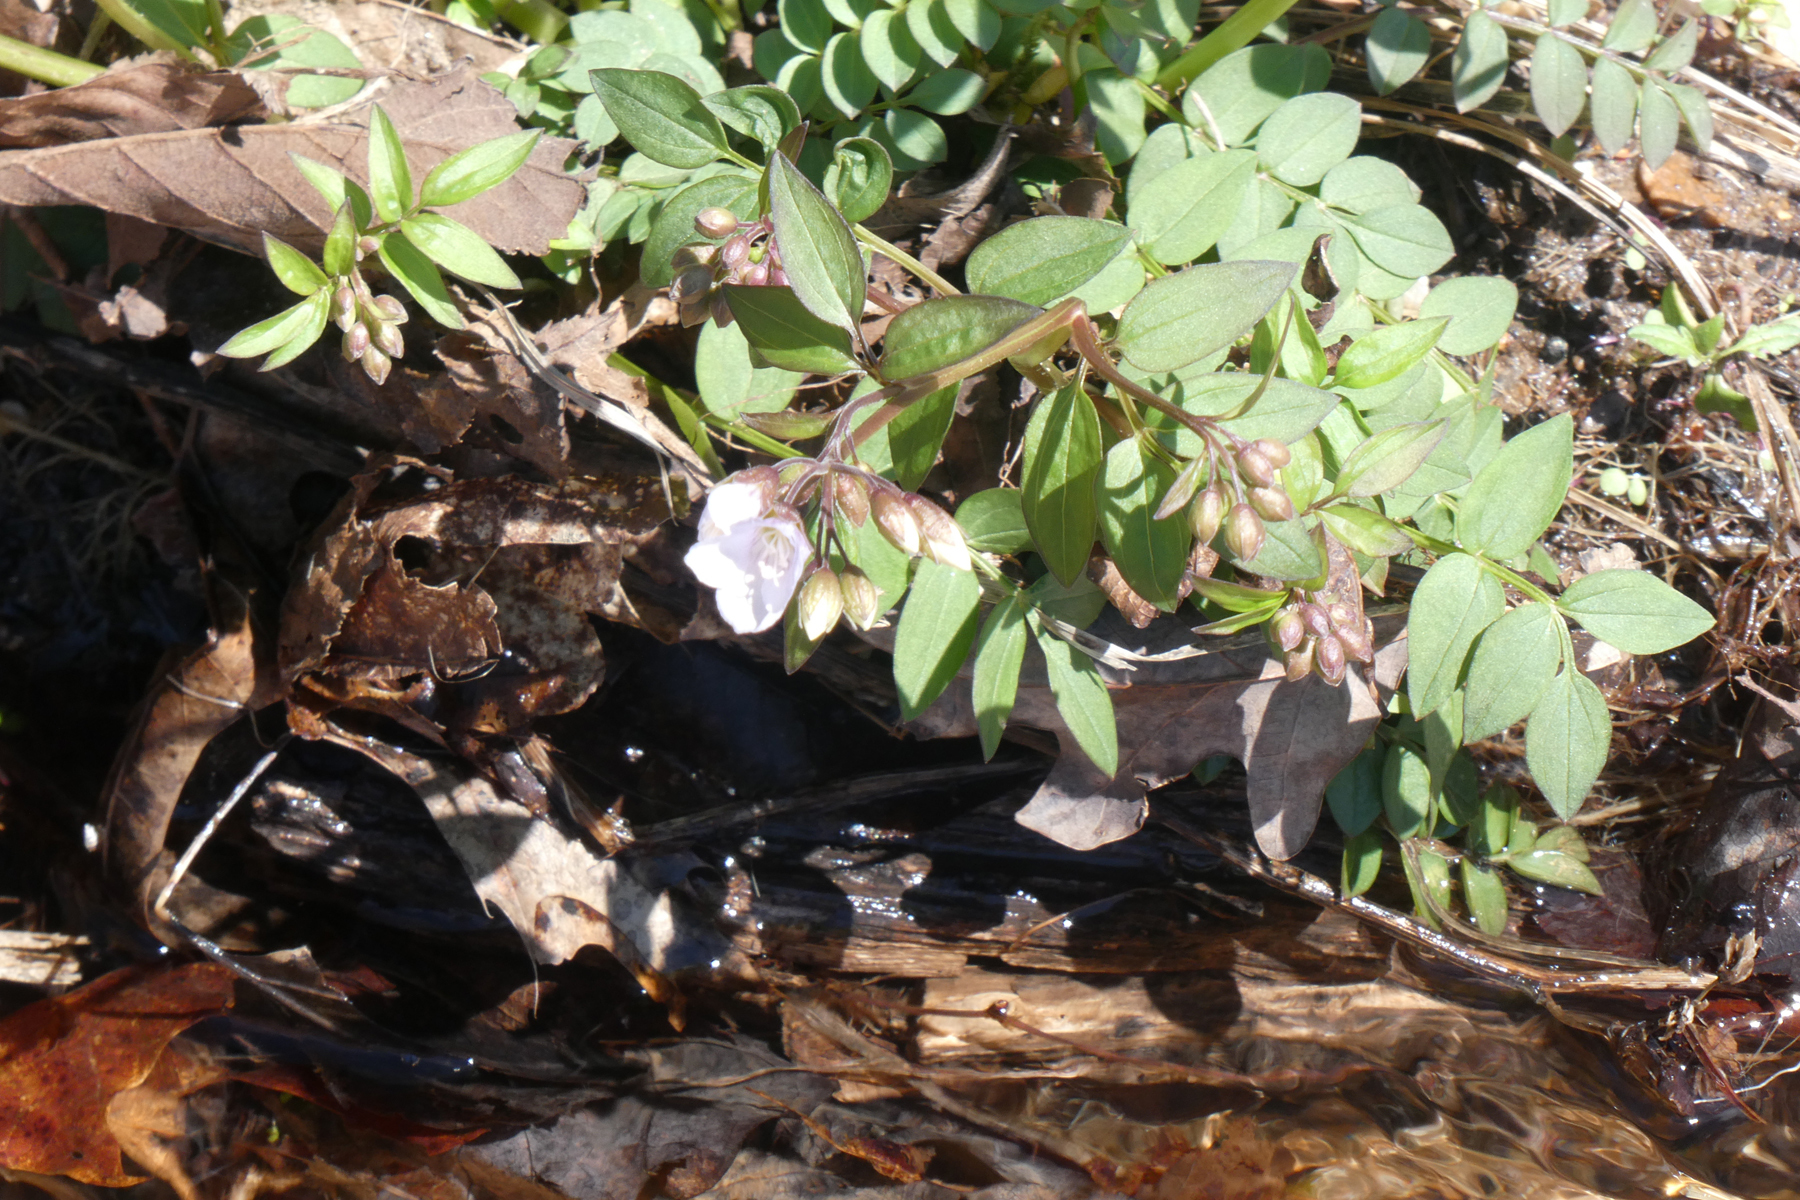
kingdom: Plantae
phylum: Tracheophyta
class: Magnoliopsida
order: Ericales
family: Polemoniaceae
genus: Polemonium
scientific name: Polemonium reptans
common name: Creeping jacob's-ladder
